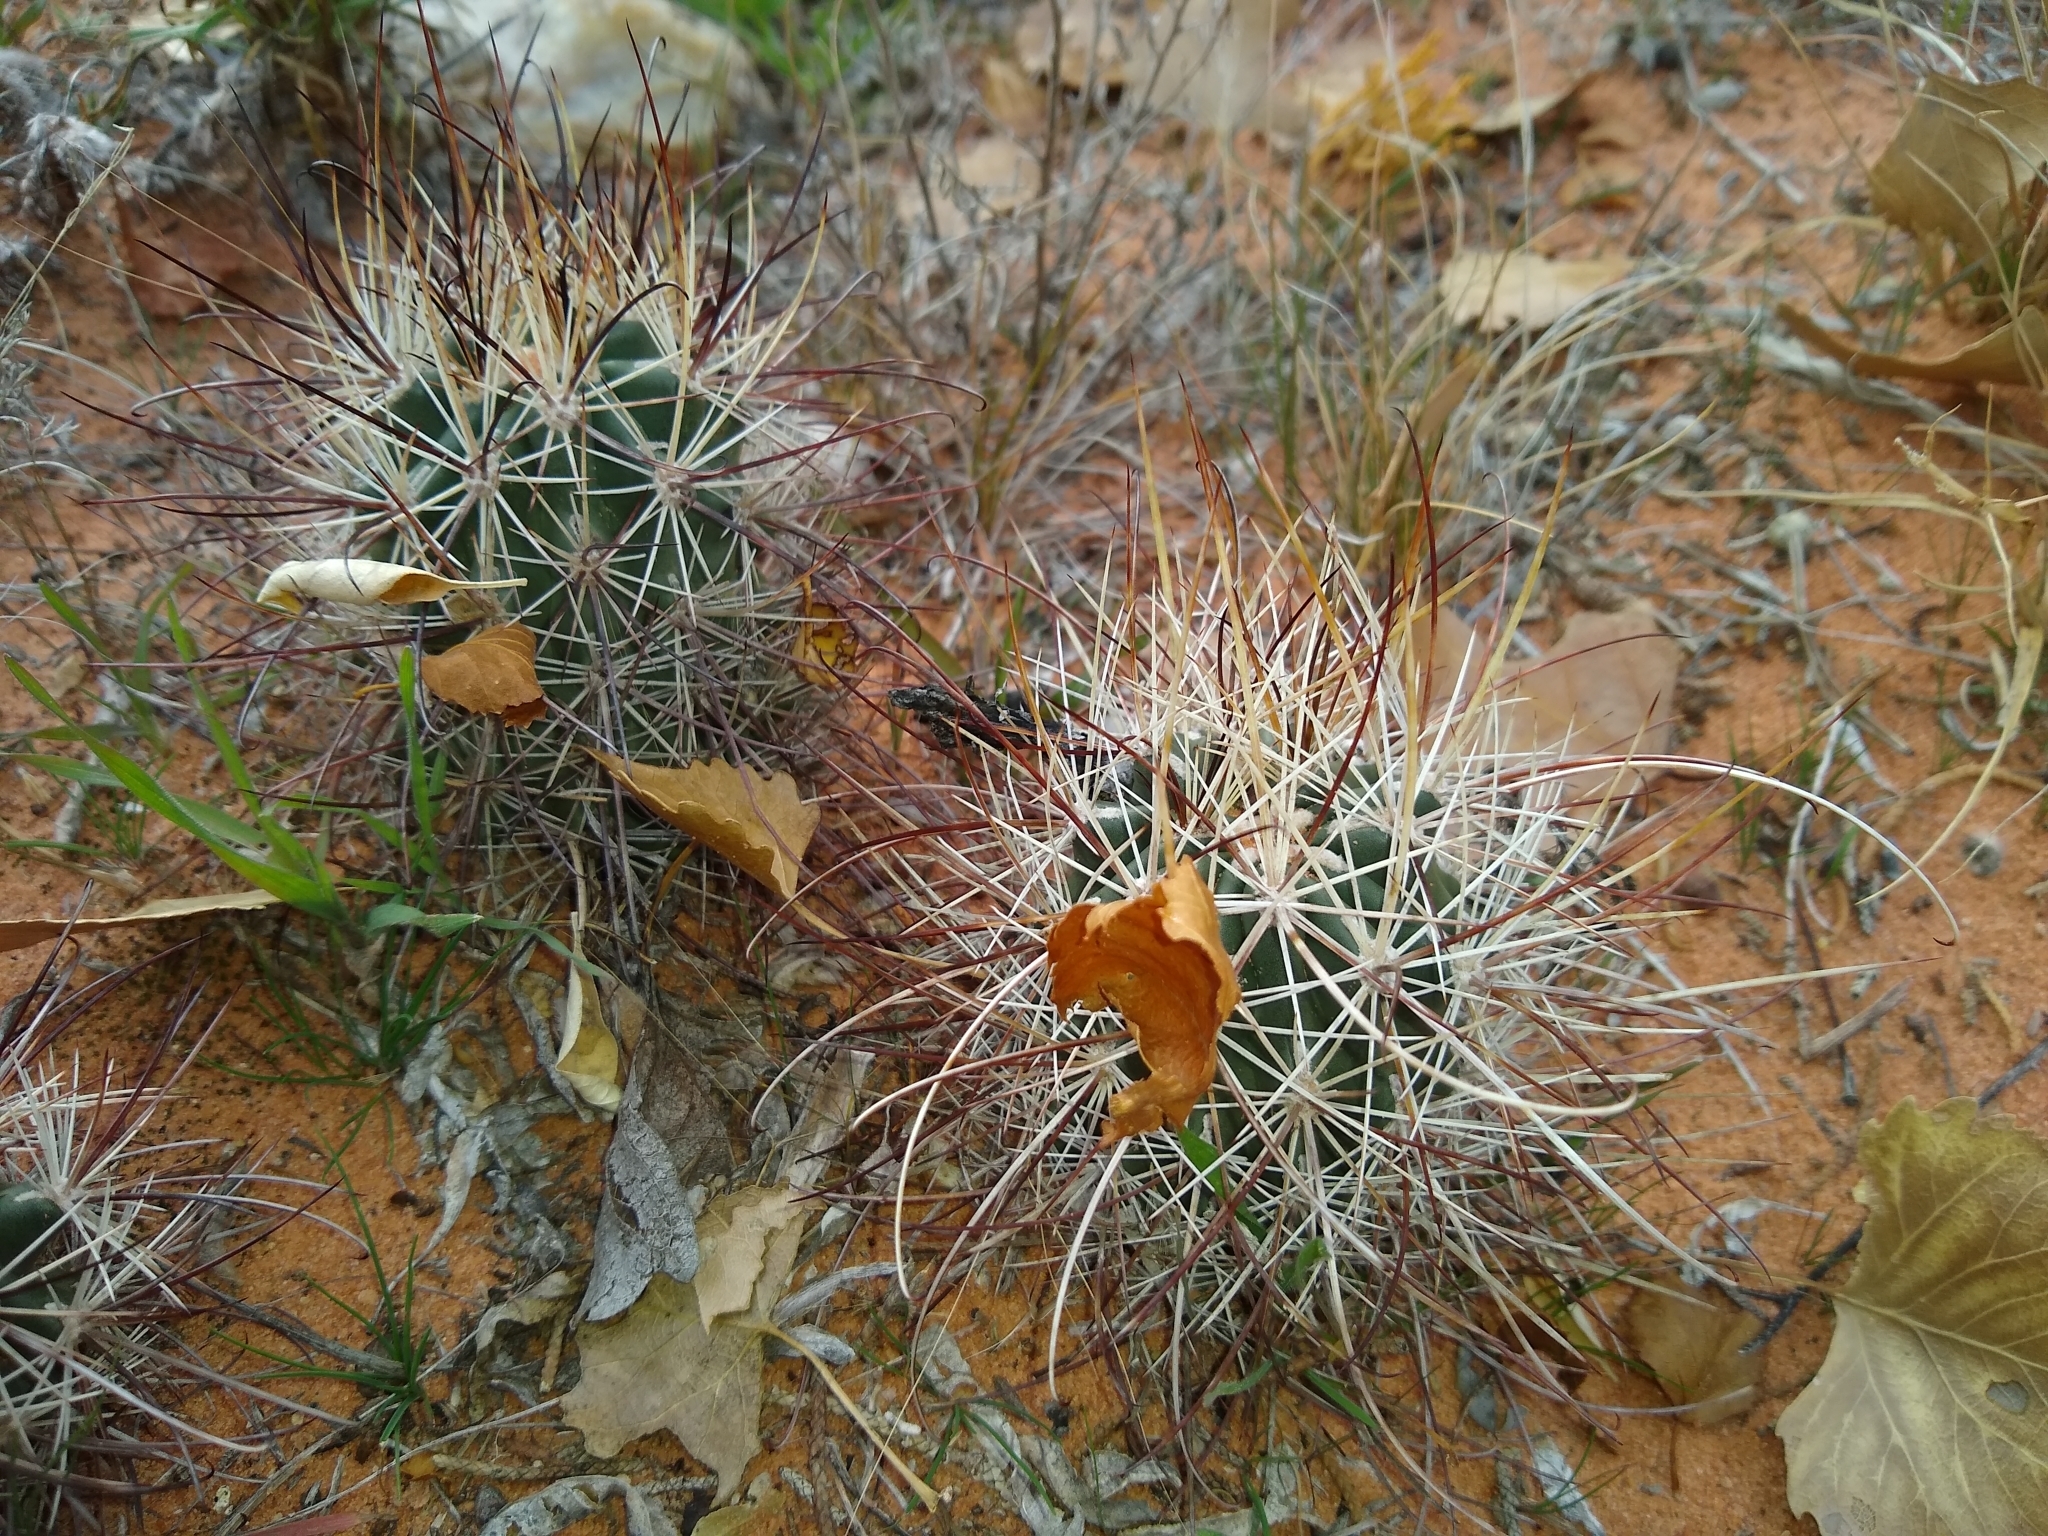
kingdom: Plantae
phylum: Tracheophyta
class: Magnoliopsida
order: Caryophyllales
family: Cactaceae
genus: Sclerocactus
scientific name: Sclerocactus parviflorus
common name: Small-flower fishhook cactus
